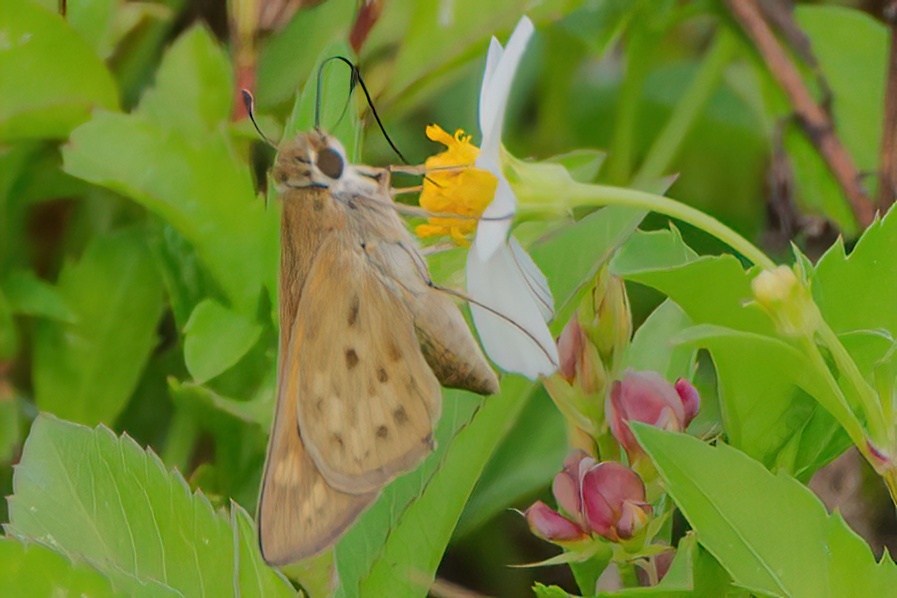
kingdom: Animalia
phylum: Arthropoda
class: Insecta
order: Lepidoptera
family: Hesperiidae
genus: Hylephila
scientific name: Hylephila phyleus
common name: Fiery skipper
